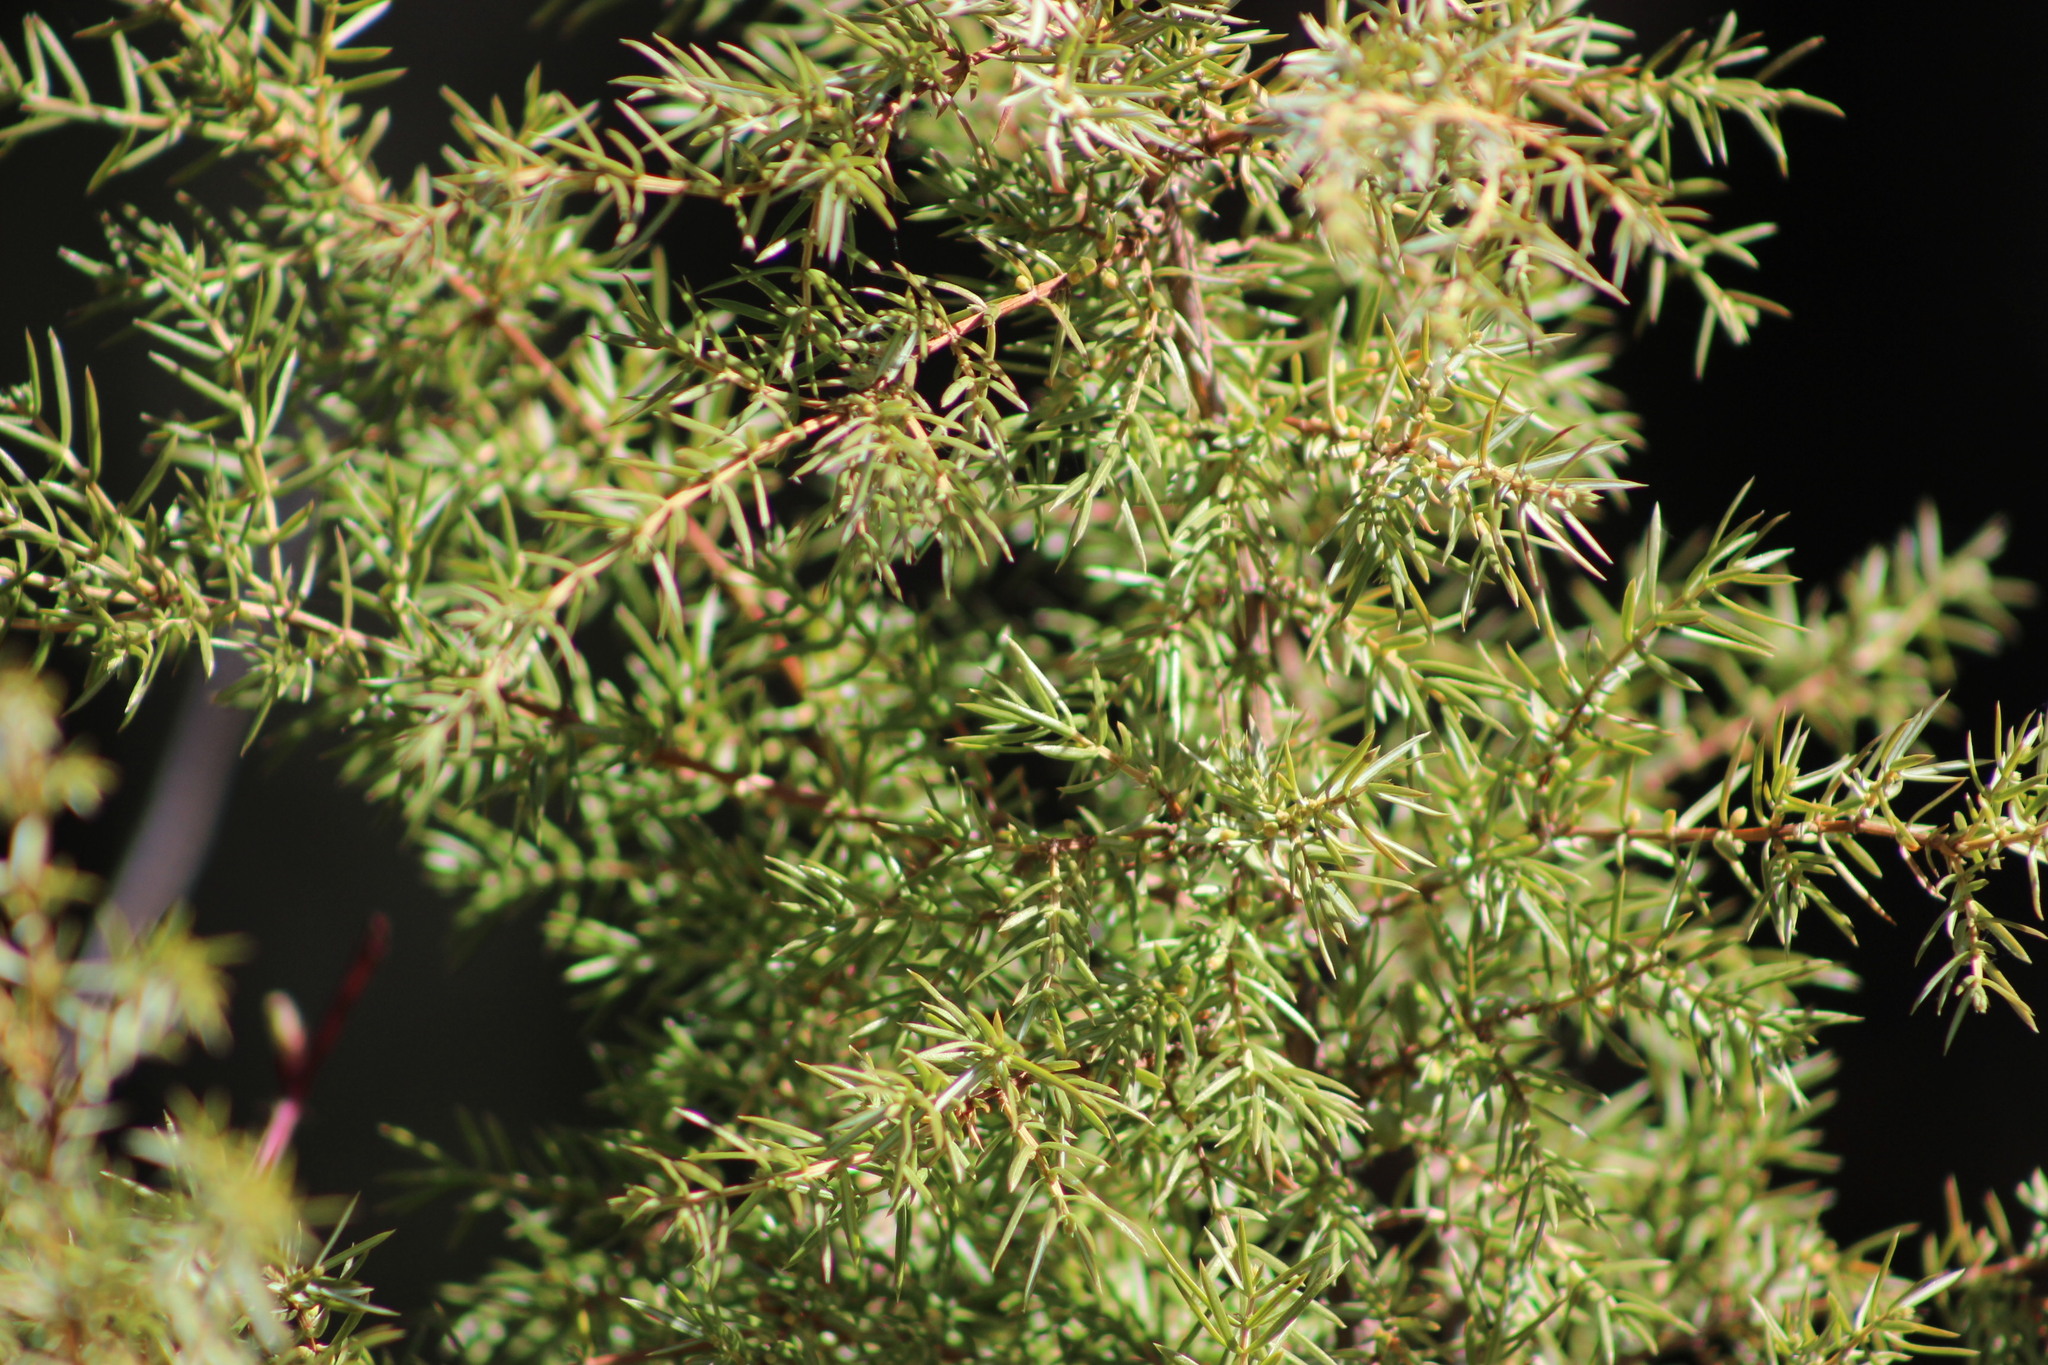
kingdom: Plantae
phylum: Tracheophyta
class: Pinopsida
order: Pinales
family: Cupressaceae
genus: Juniperus
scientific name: Juniperus communis
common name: Common juniper
